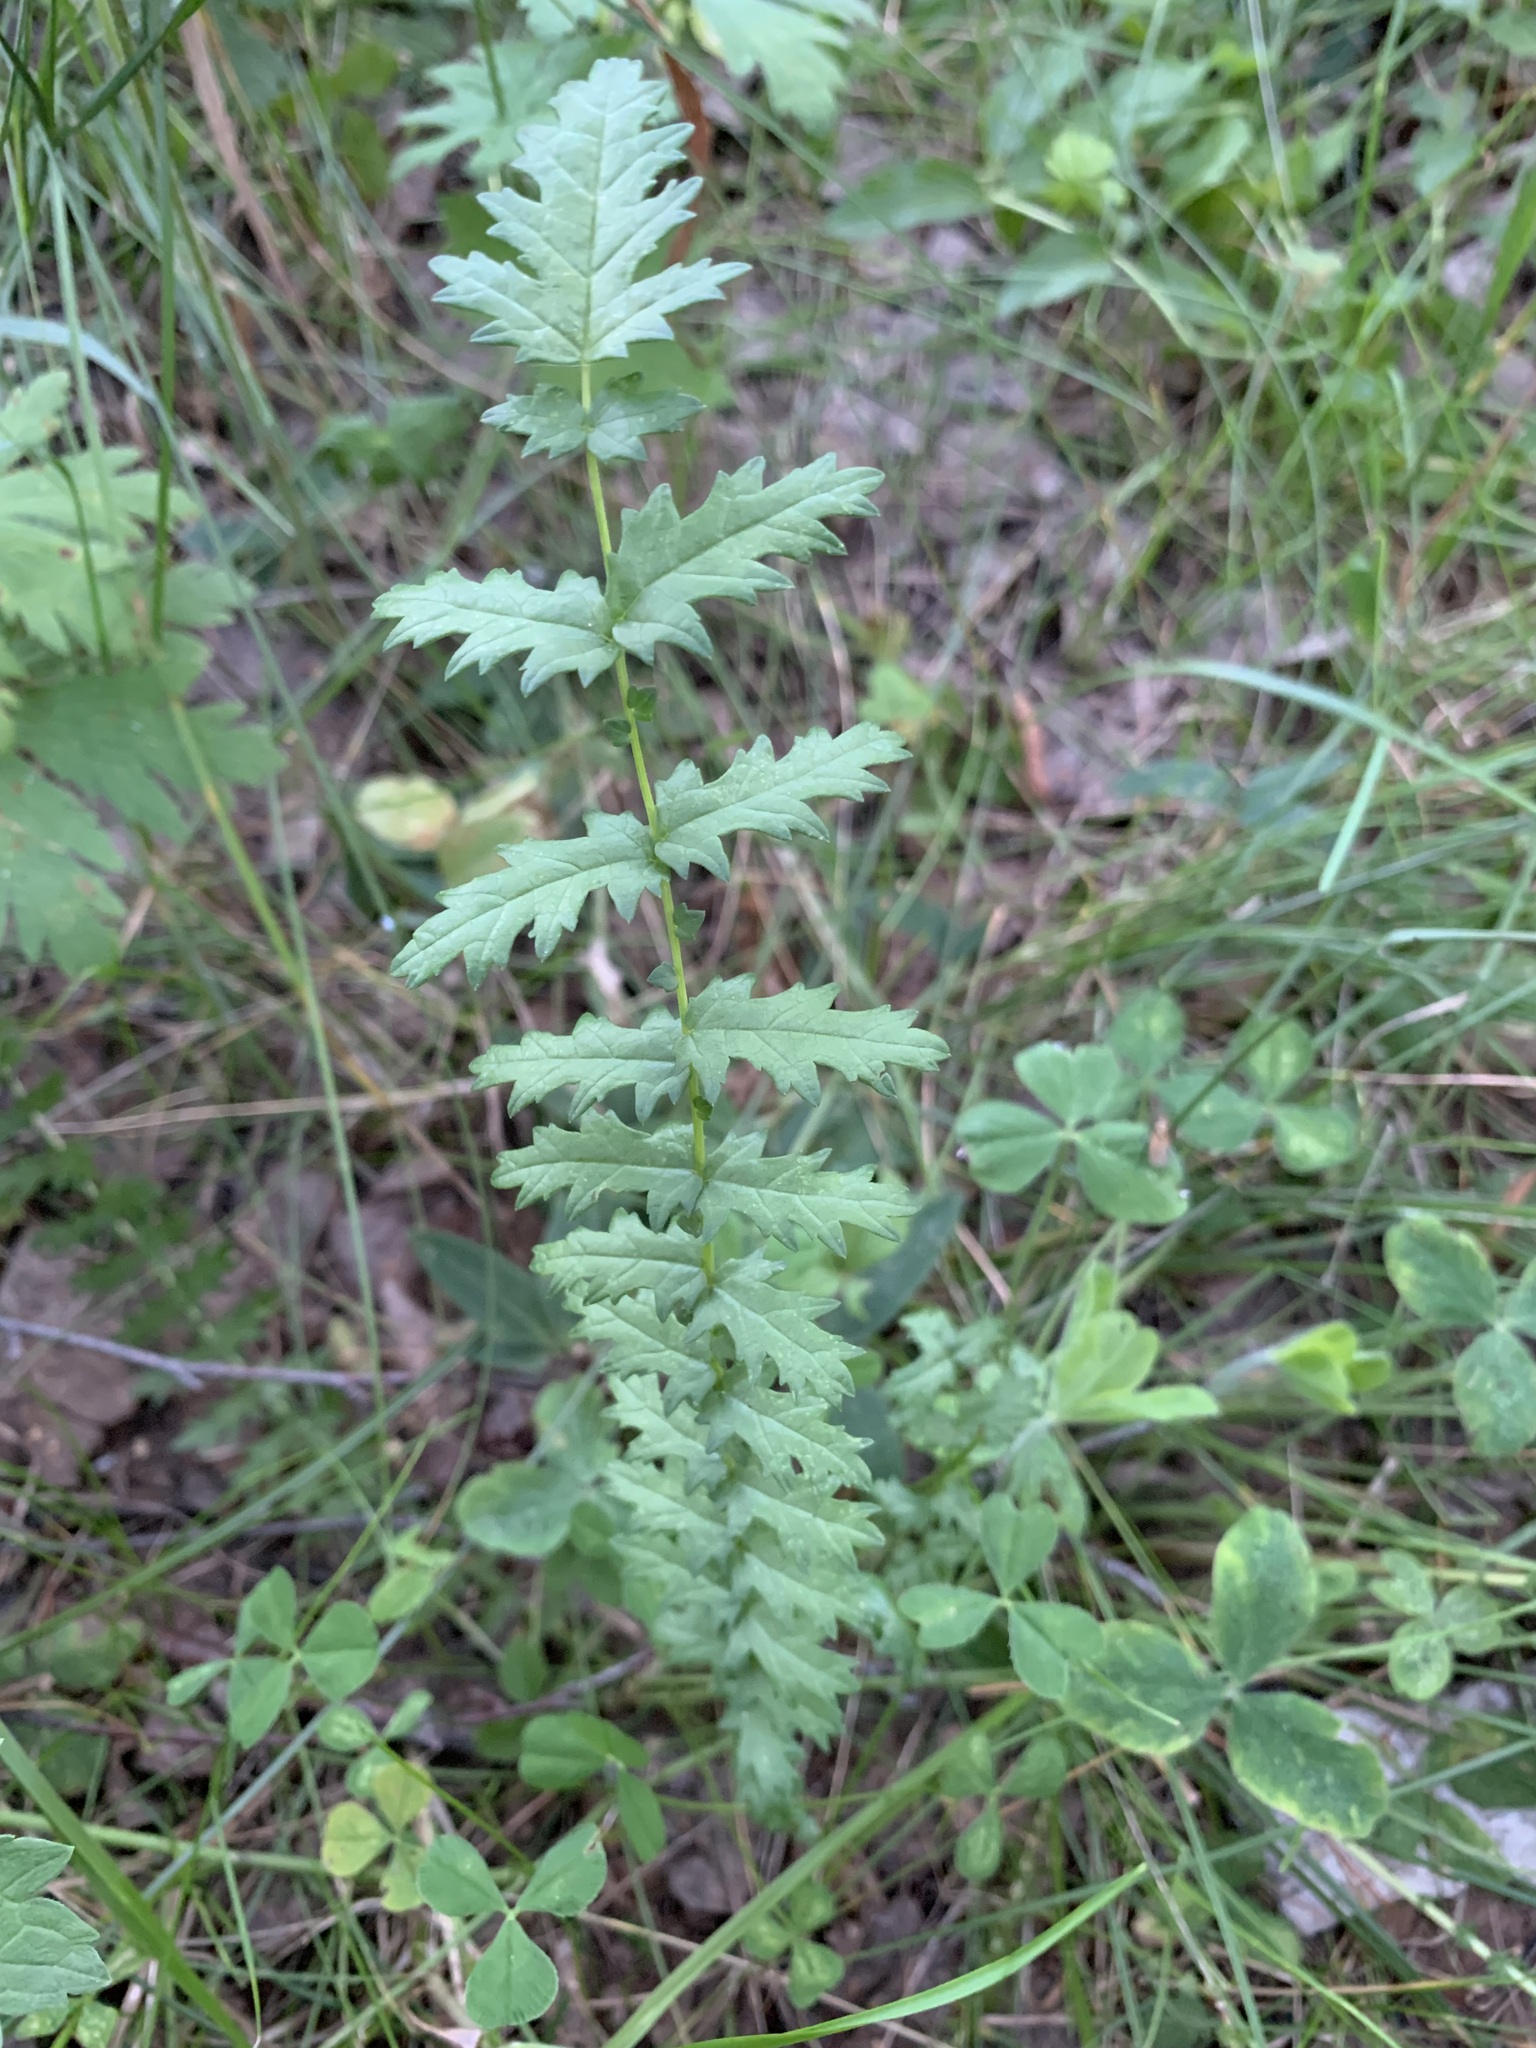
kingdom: Plantae
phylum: Tracheophyta
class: Magnoliopsida
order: Rosales
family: Rosaceae
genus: Filipendula
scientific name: Filipendula vulgaris
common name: Dropwort
